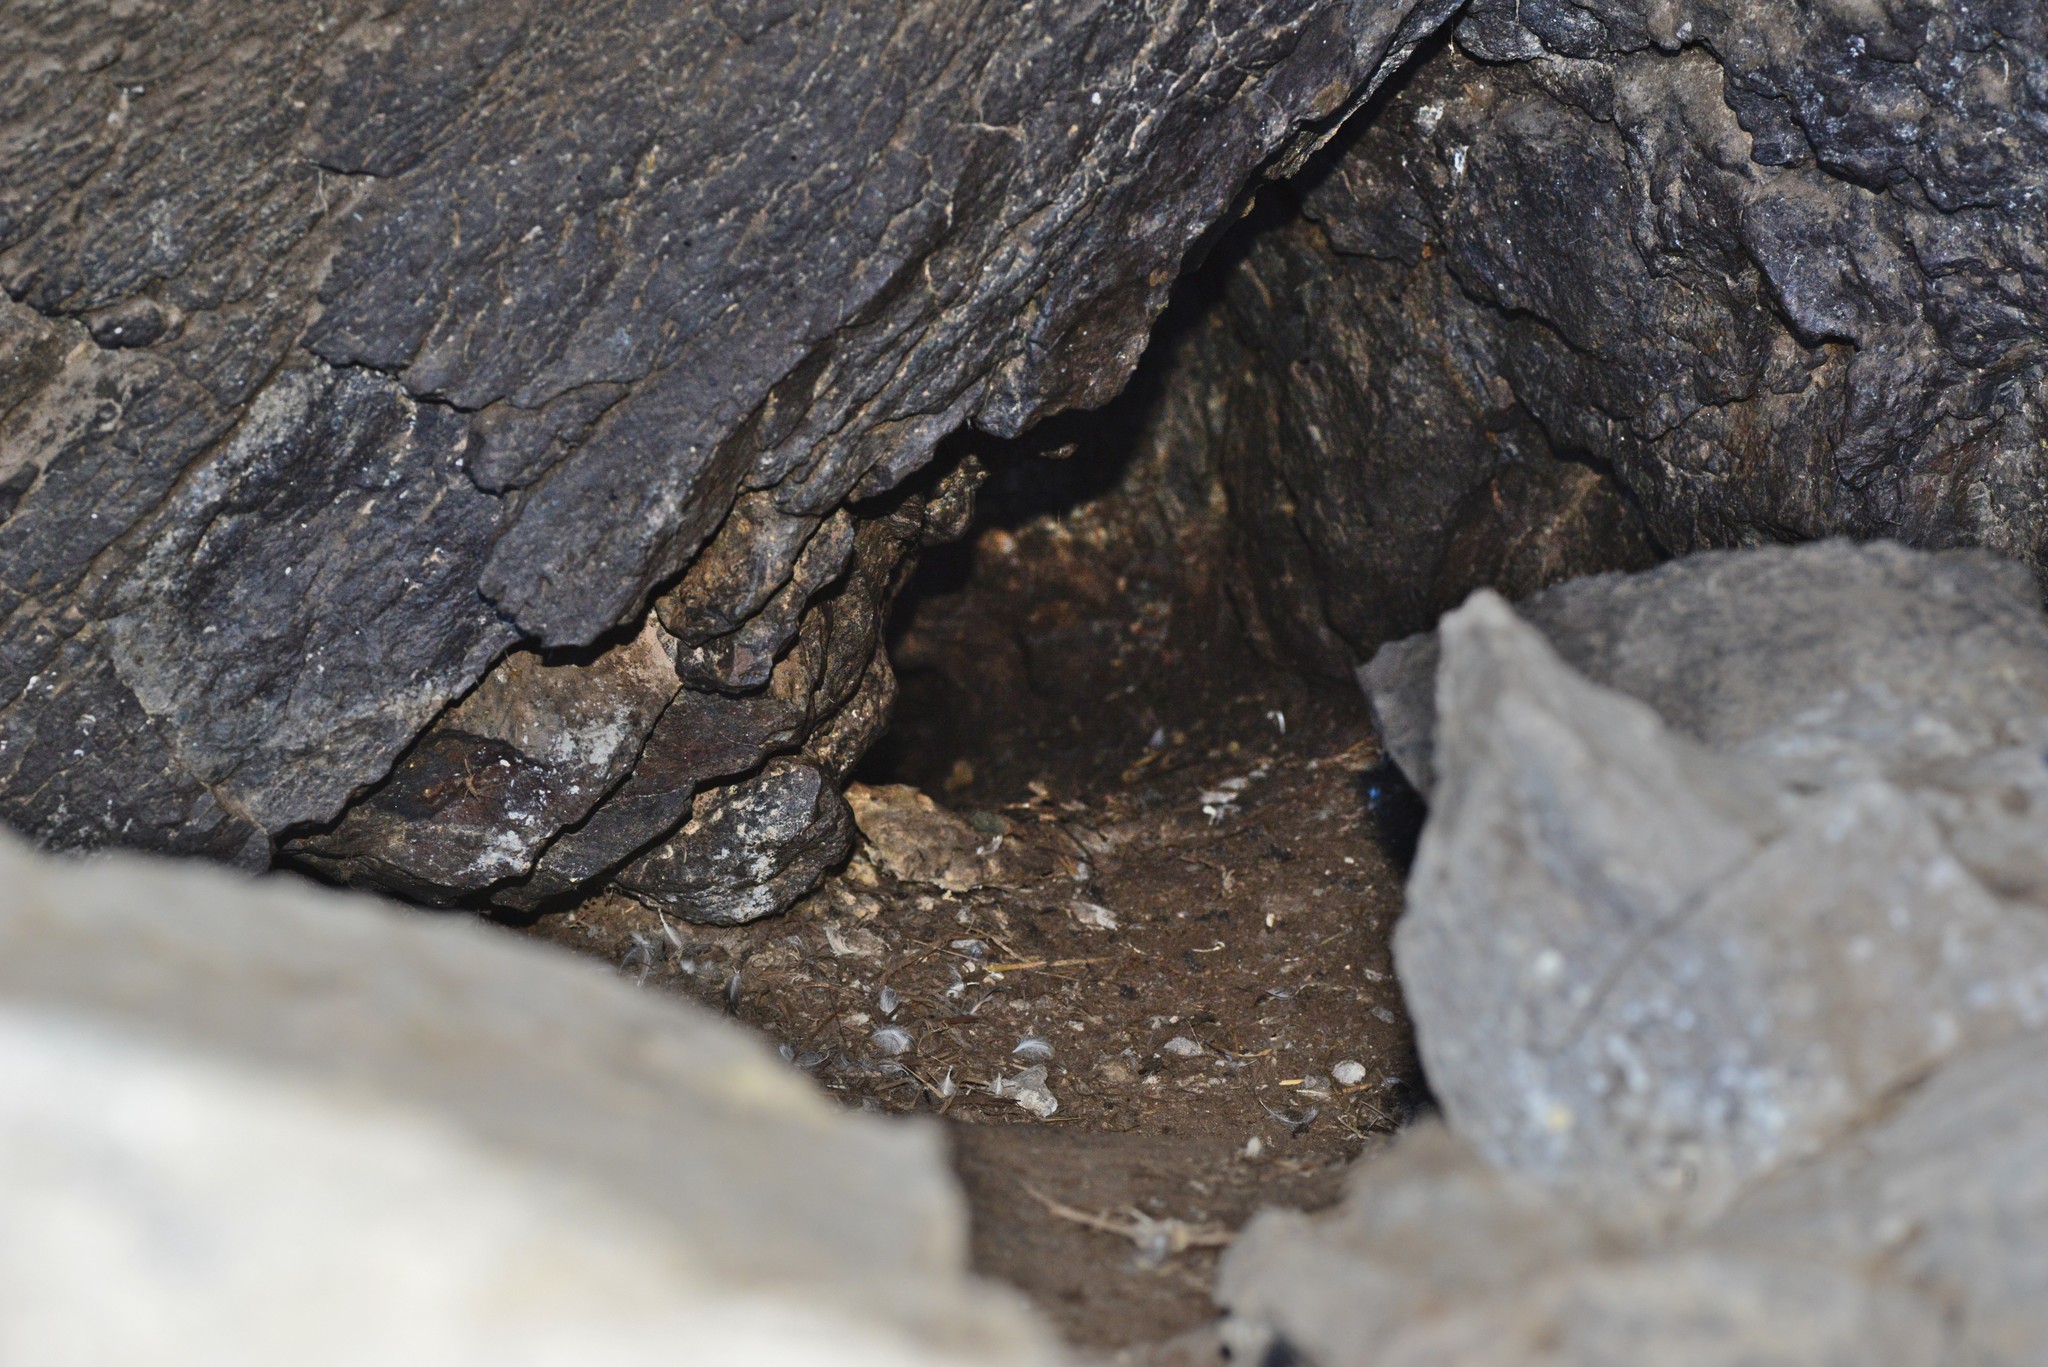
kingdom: Animalia
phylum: Chordata
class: Aves
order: Sphenisciformes
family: Spheniscidae
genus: Eudyptula
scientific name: Eudyptula minor
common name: Little penguin
